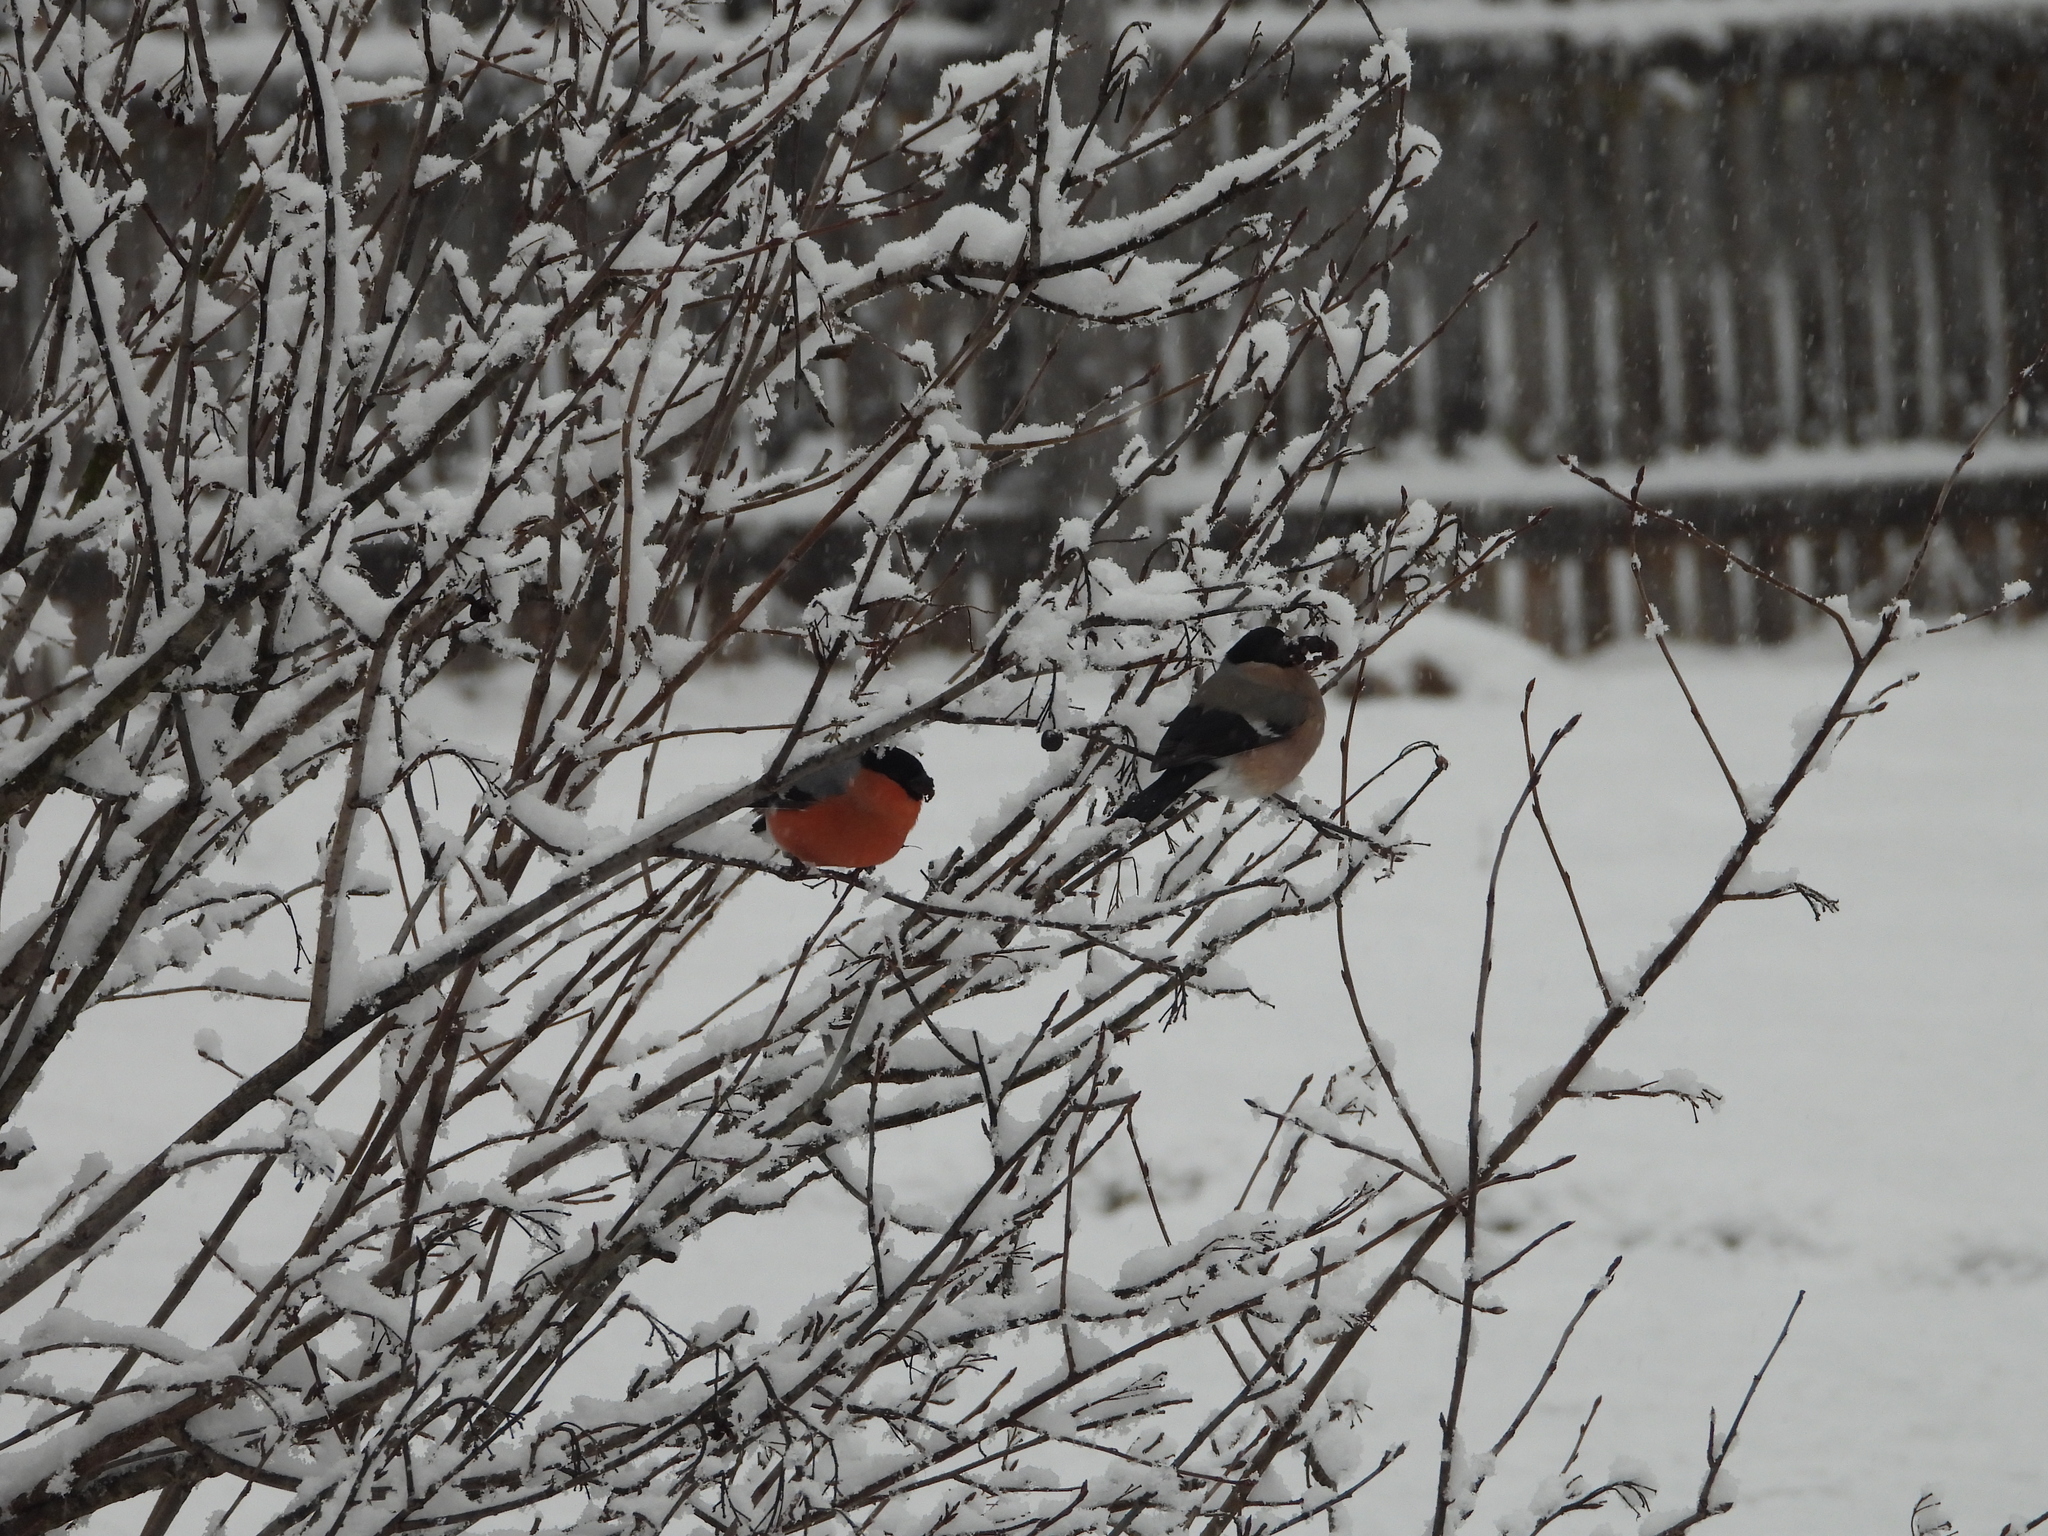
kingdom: Animalia
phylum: Chordata
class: Aves
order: Passeriformes
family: Fringillidae
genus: Pyrrhula
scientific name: Pyrrhula pyrrhula
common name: Eurasian bullfinch
